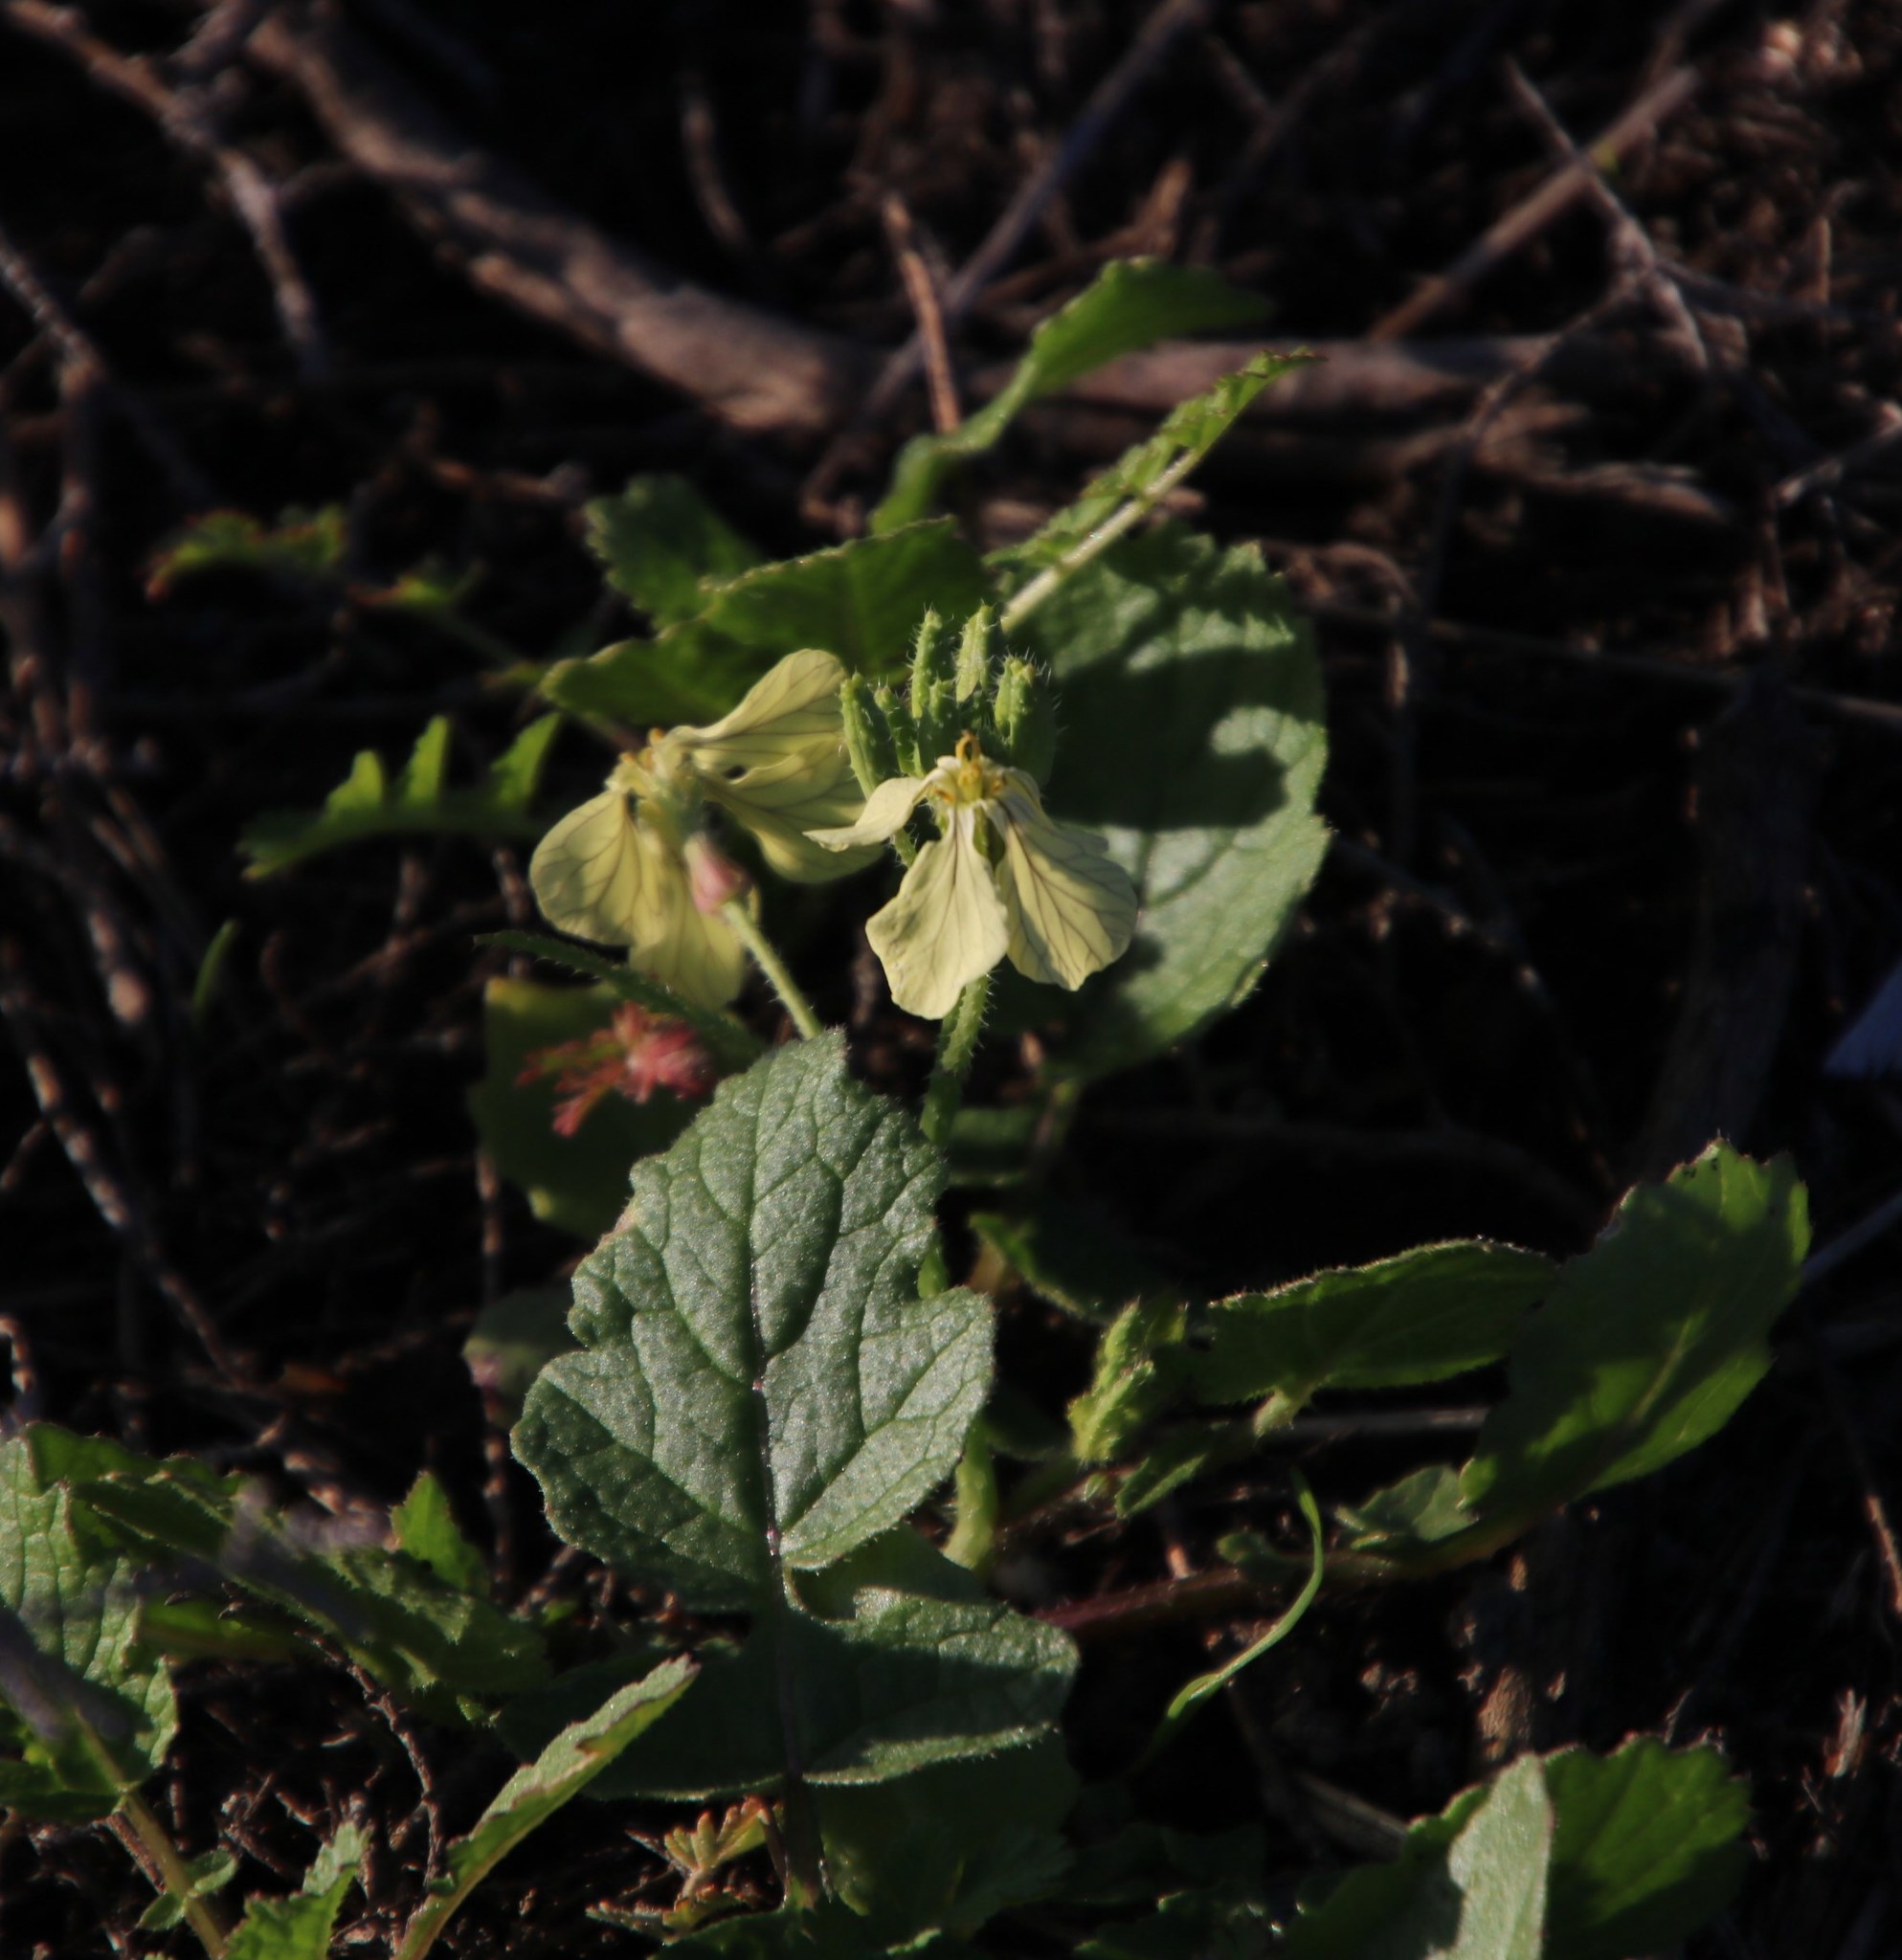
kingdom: Plantae
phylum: Tracheophyta
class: Magnoliopsida
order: Brassicales
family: Brassicaceae
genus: Raphanus
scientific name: Raphanus raphanistrum
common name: Wild radish
